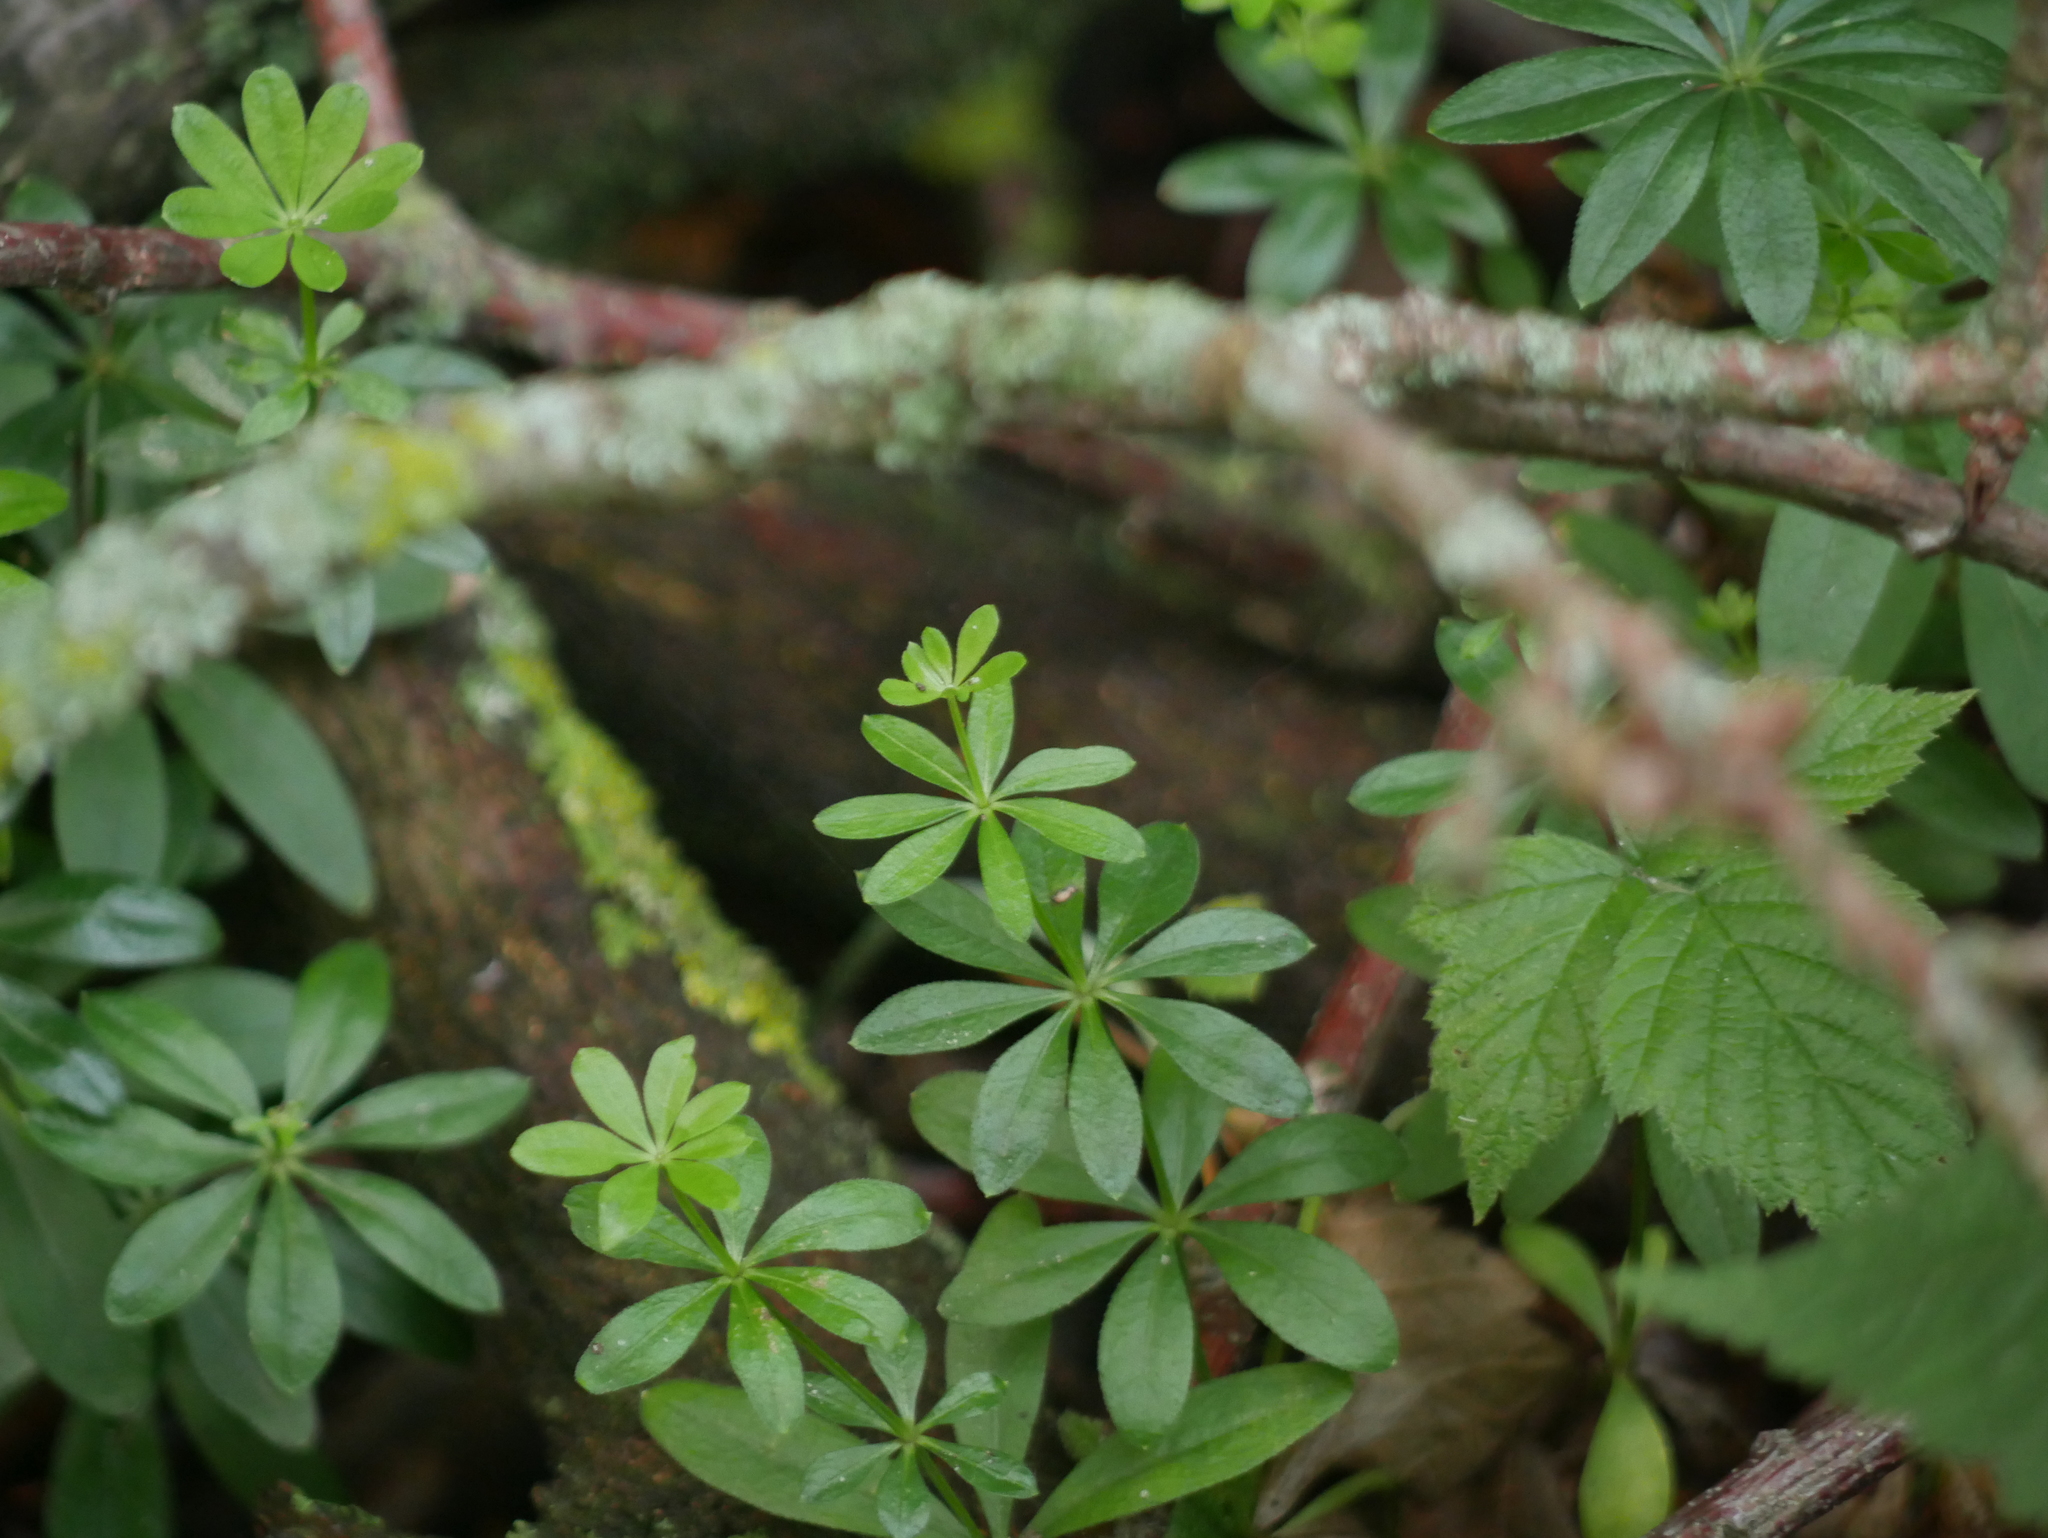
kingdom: Plantae
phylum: Tracheophyta
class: Magnoliopsida
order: Gentianales
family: Rubiaceae
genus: Galium
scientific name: Galium odoratum
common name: Sweet woodruff
